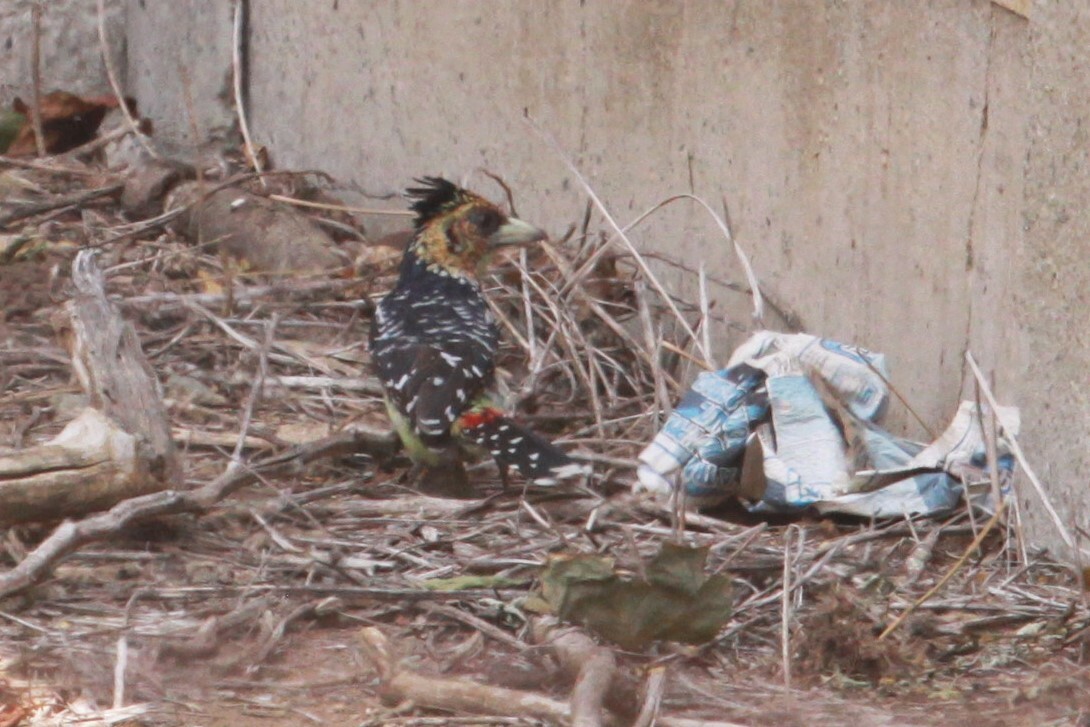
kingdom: Animalia
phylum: Chordata
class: Aves
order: Piciformes
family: Lybiidae
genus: Trachyphonus
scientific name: Trachyphonus vaillantii
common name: Crested barbet
